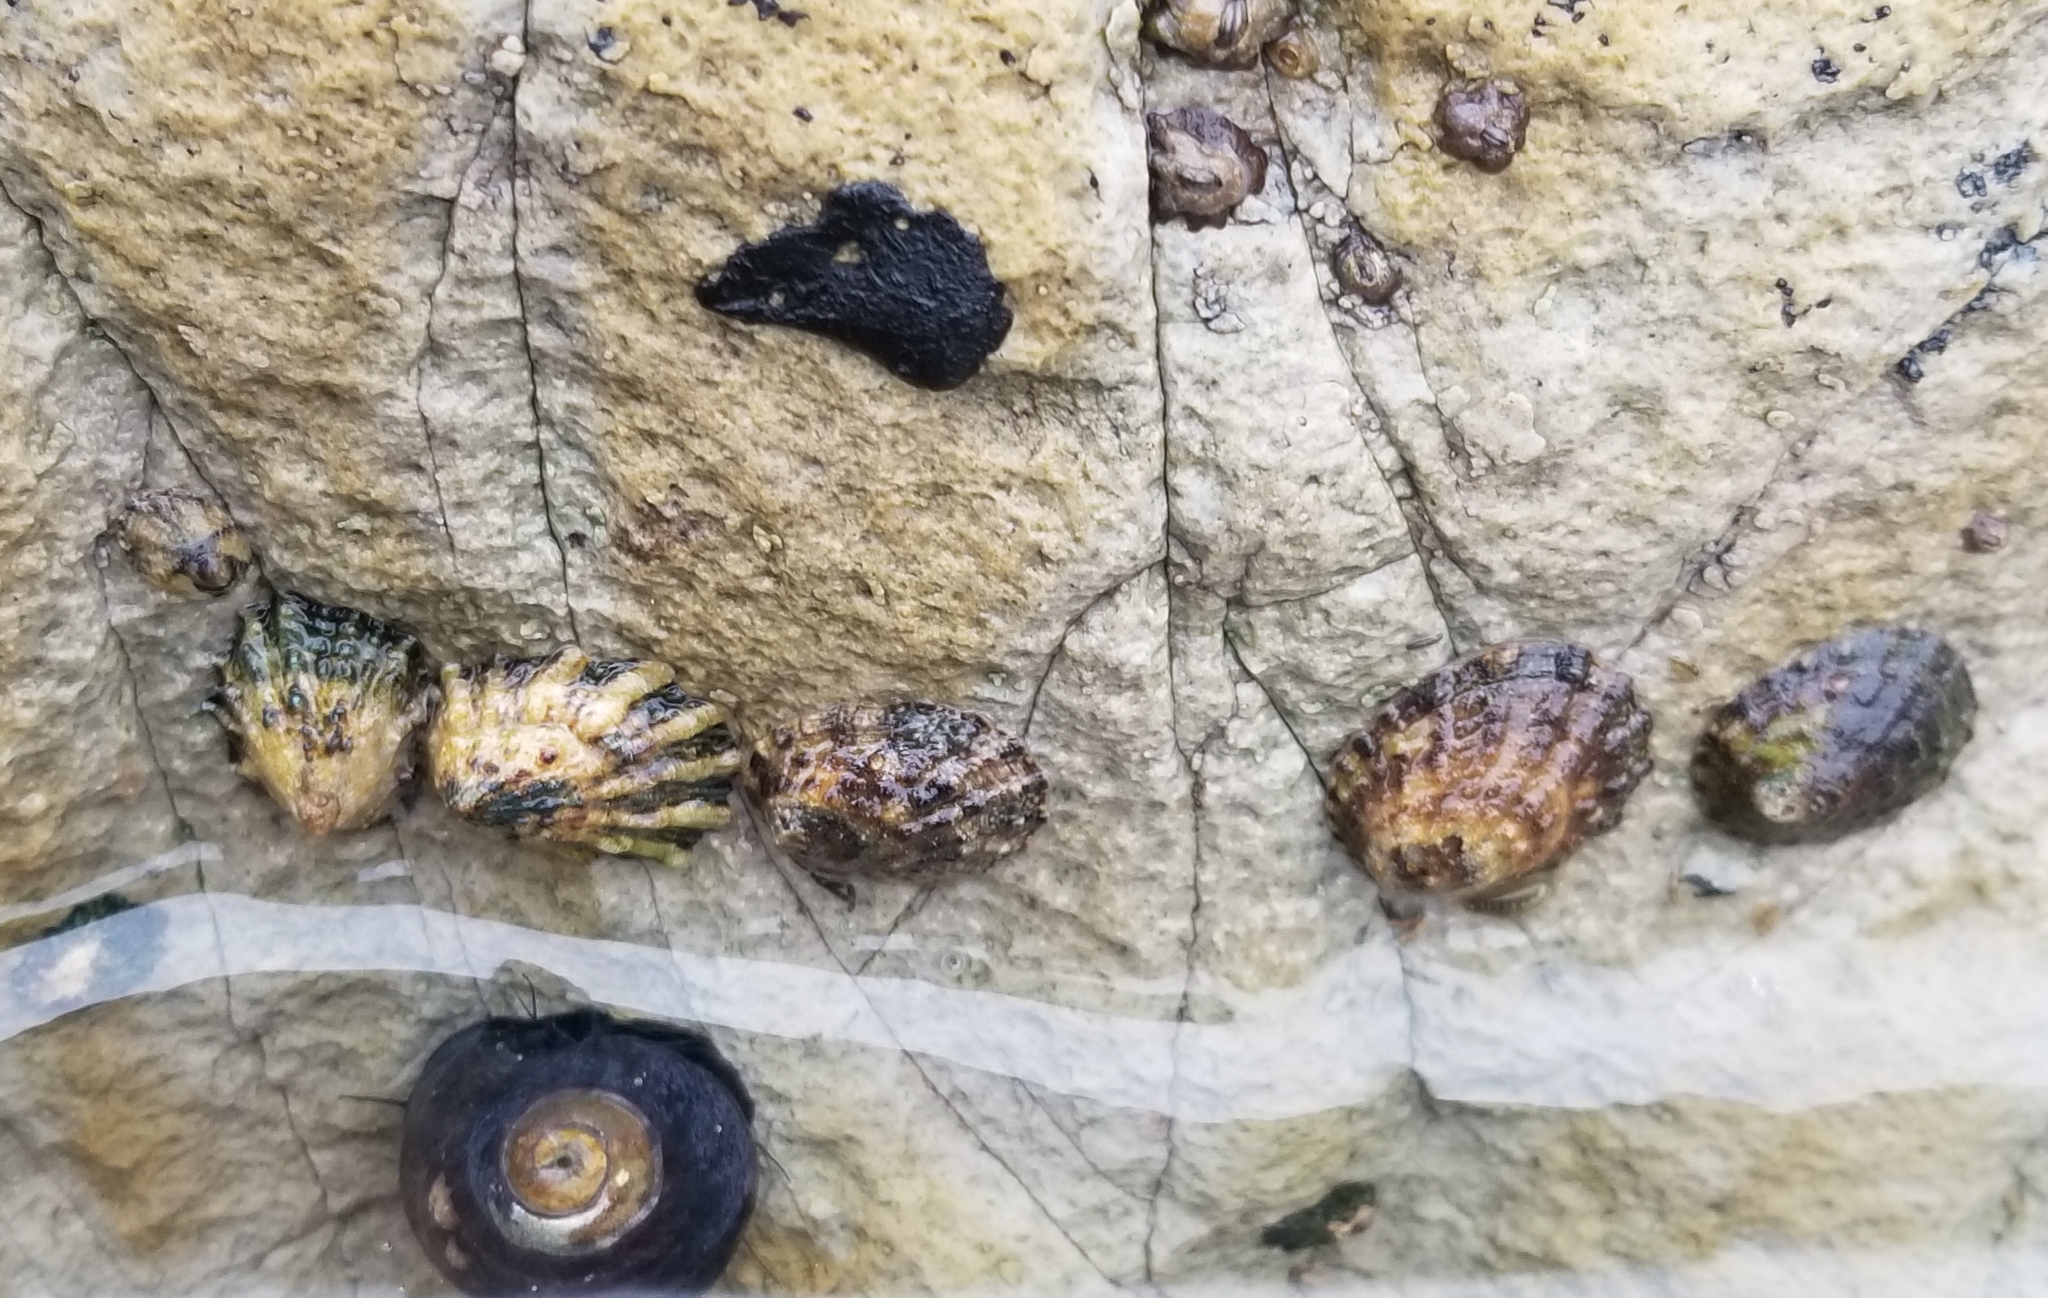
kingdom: Animalia
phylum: Mollusca
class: Gastropoda
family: Lottiidae
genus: Lottia
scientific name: Lottia scabra
